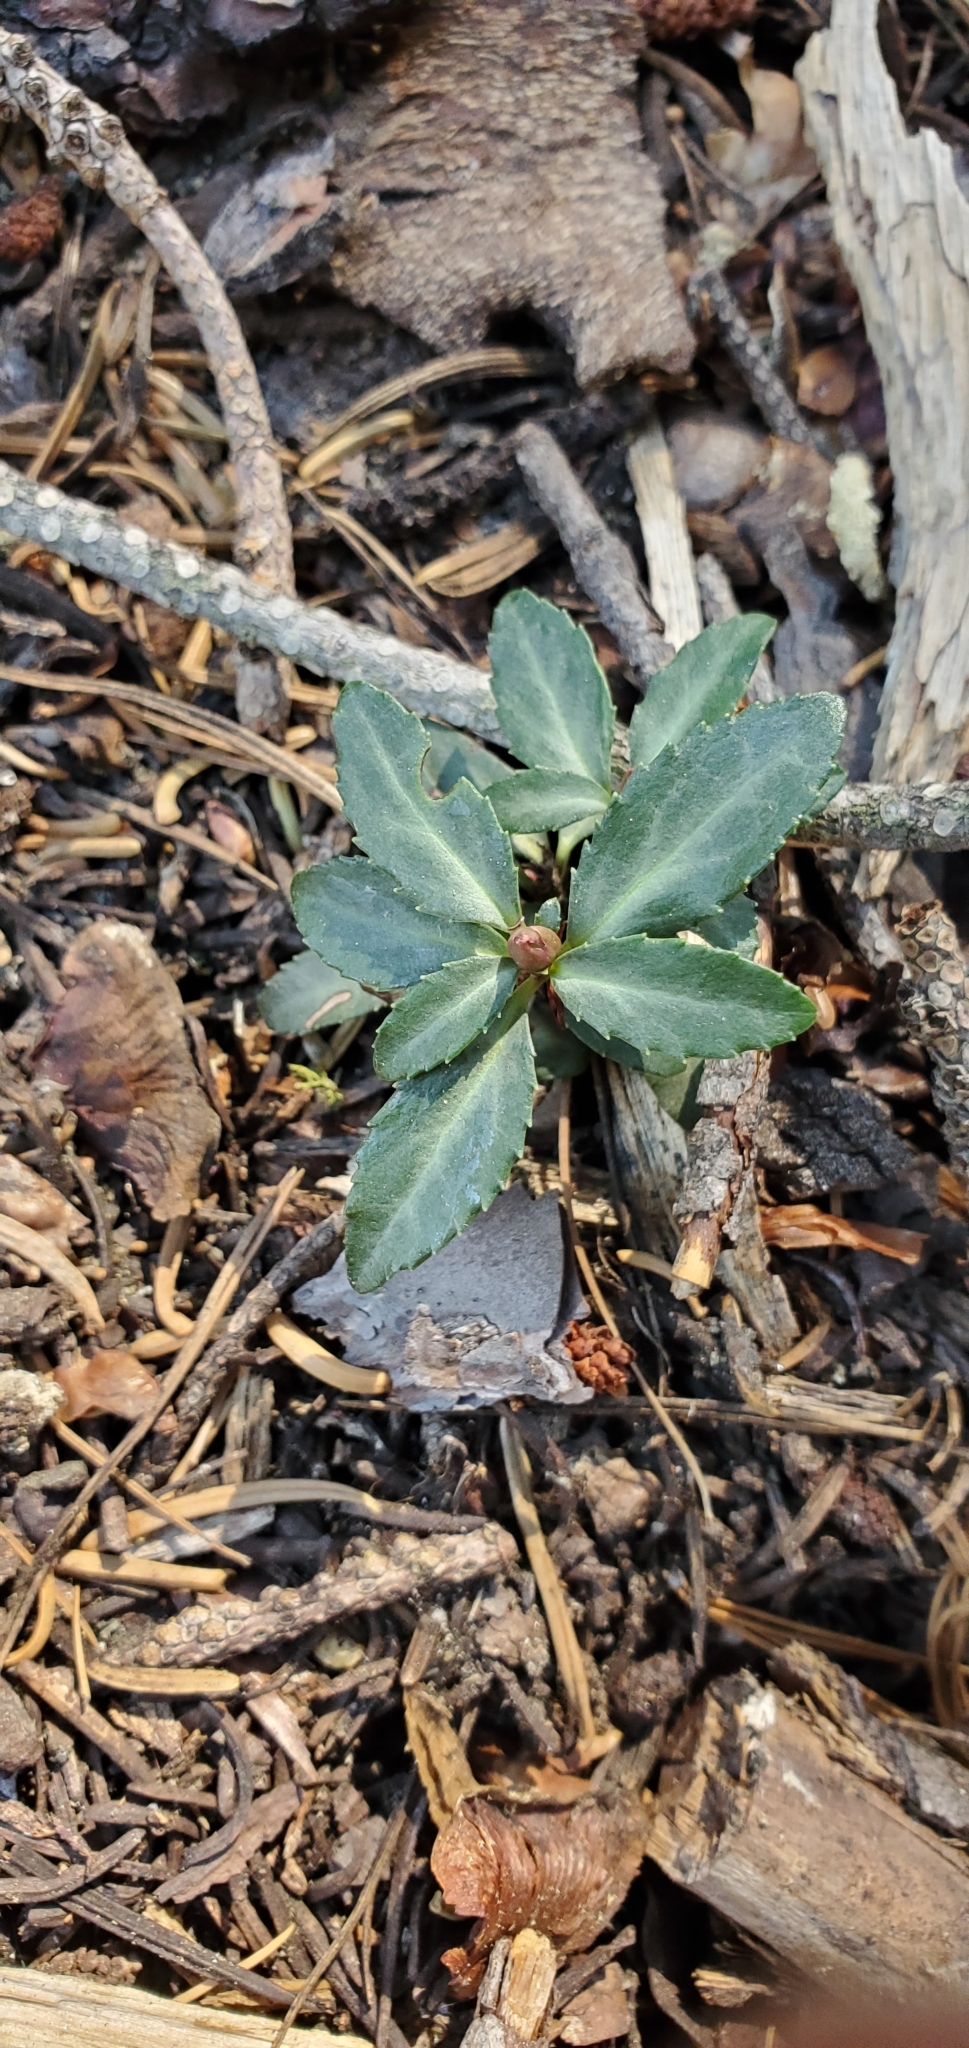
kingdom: Plantae
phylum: Tracheophyta
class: Magnoliopsida
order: Ericales
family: Ericaceae
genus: Chimaphila
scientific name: Chimaphila menziesii
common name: Menzies' pipsissewa
